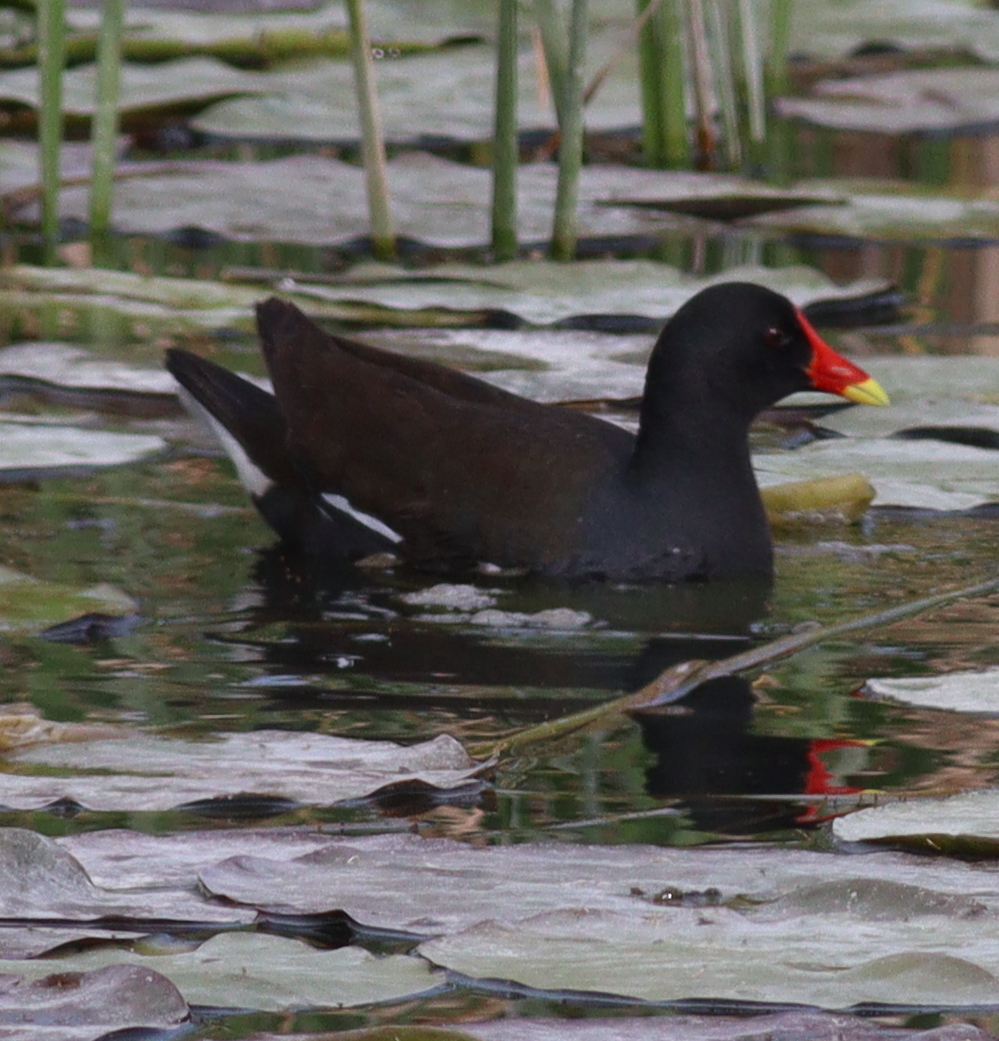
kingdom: Animalia
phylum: Chordata
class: Aves
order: Gruiformes
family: Rallidae
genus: Gallinula
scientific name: Gallinula chloropus
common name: Common moorhen
